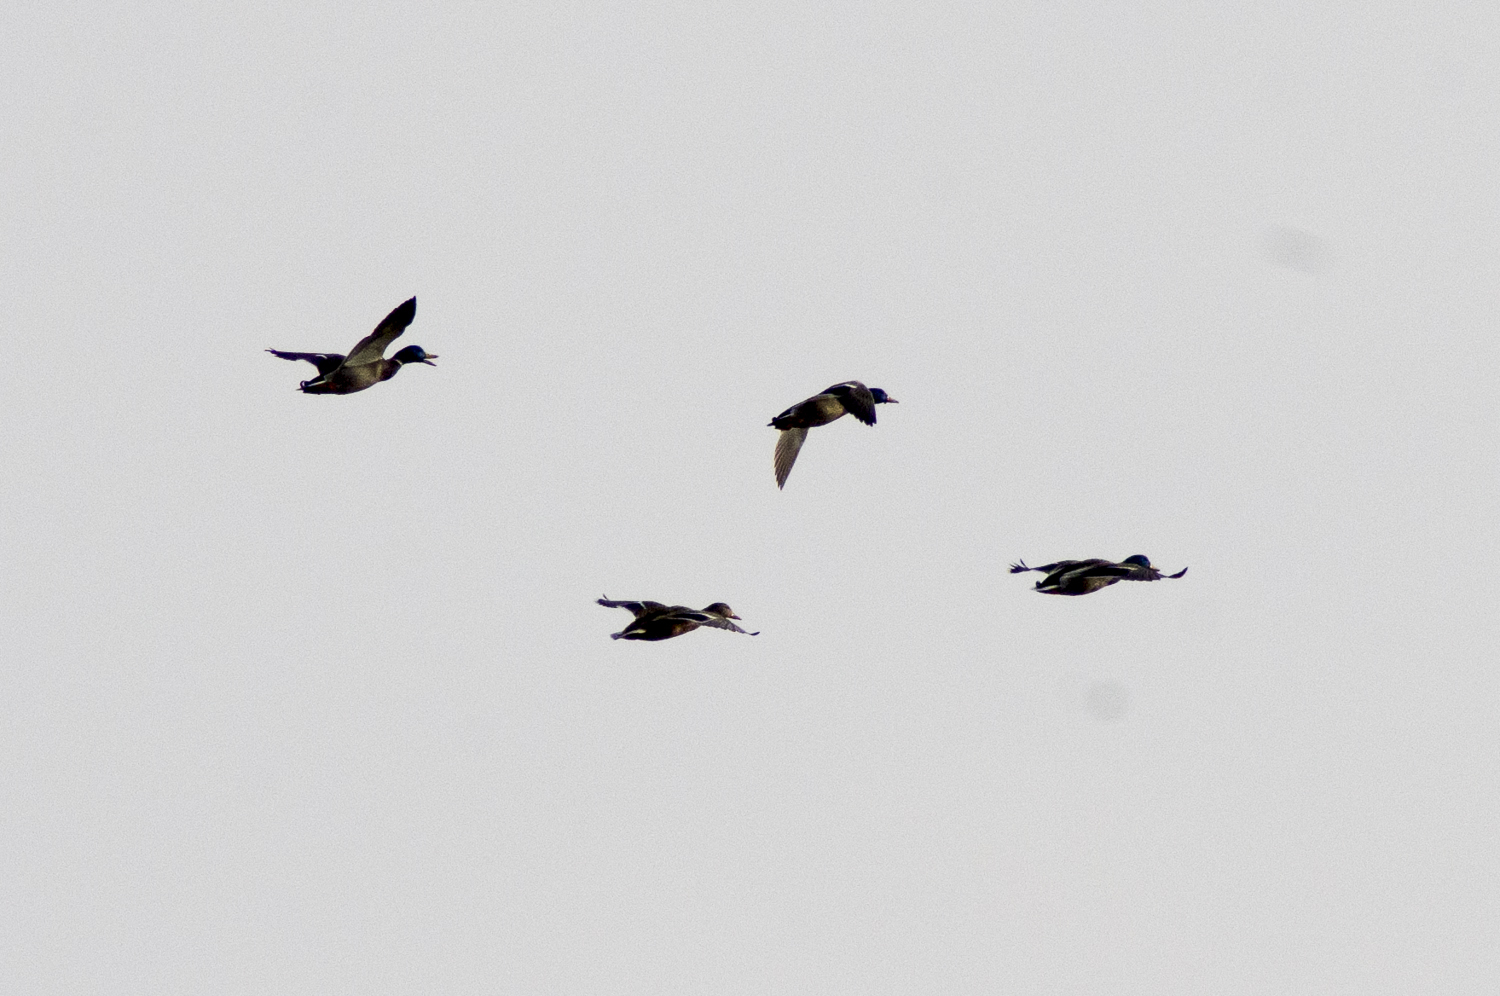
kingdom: Animalia
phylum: Chordata
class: Aves
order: Anseriformes
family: Anatidae
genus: Anas
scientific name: Anas platyrhynchos
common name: Mallard
